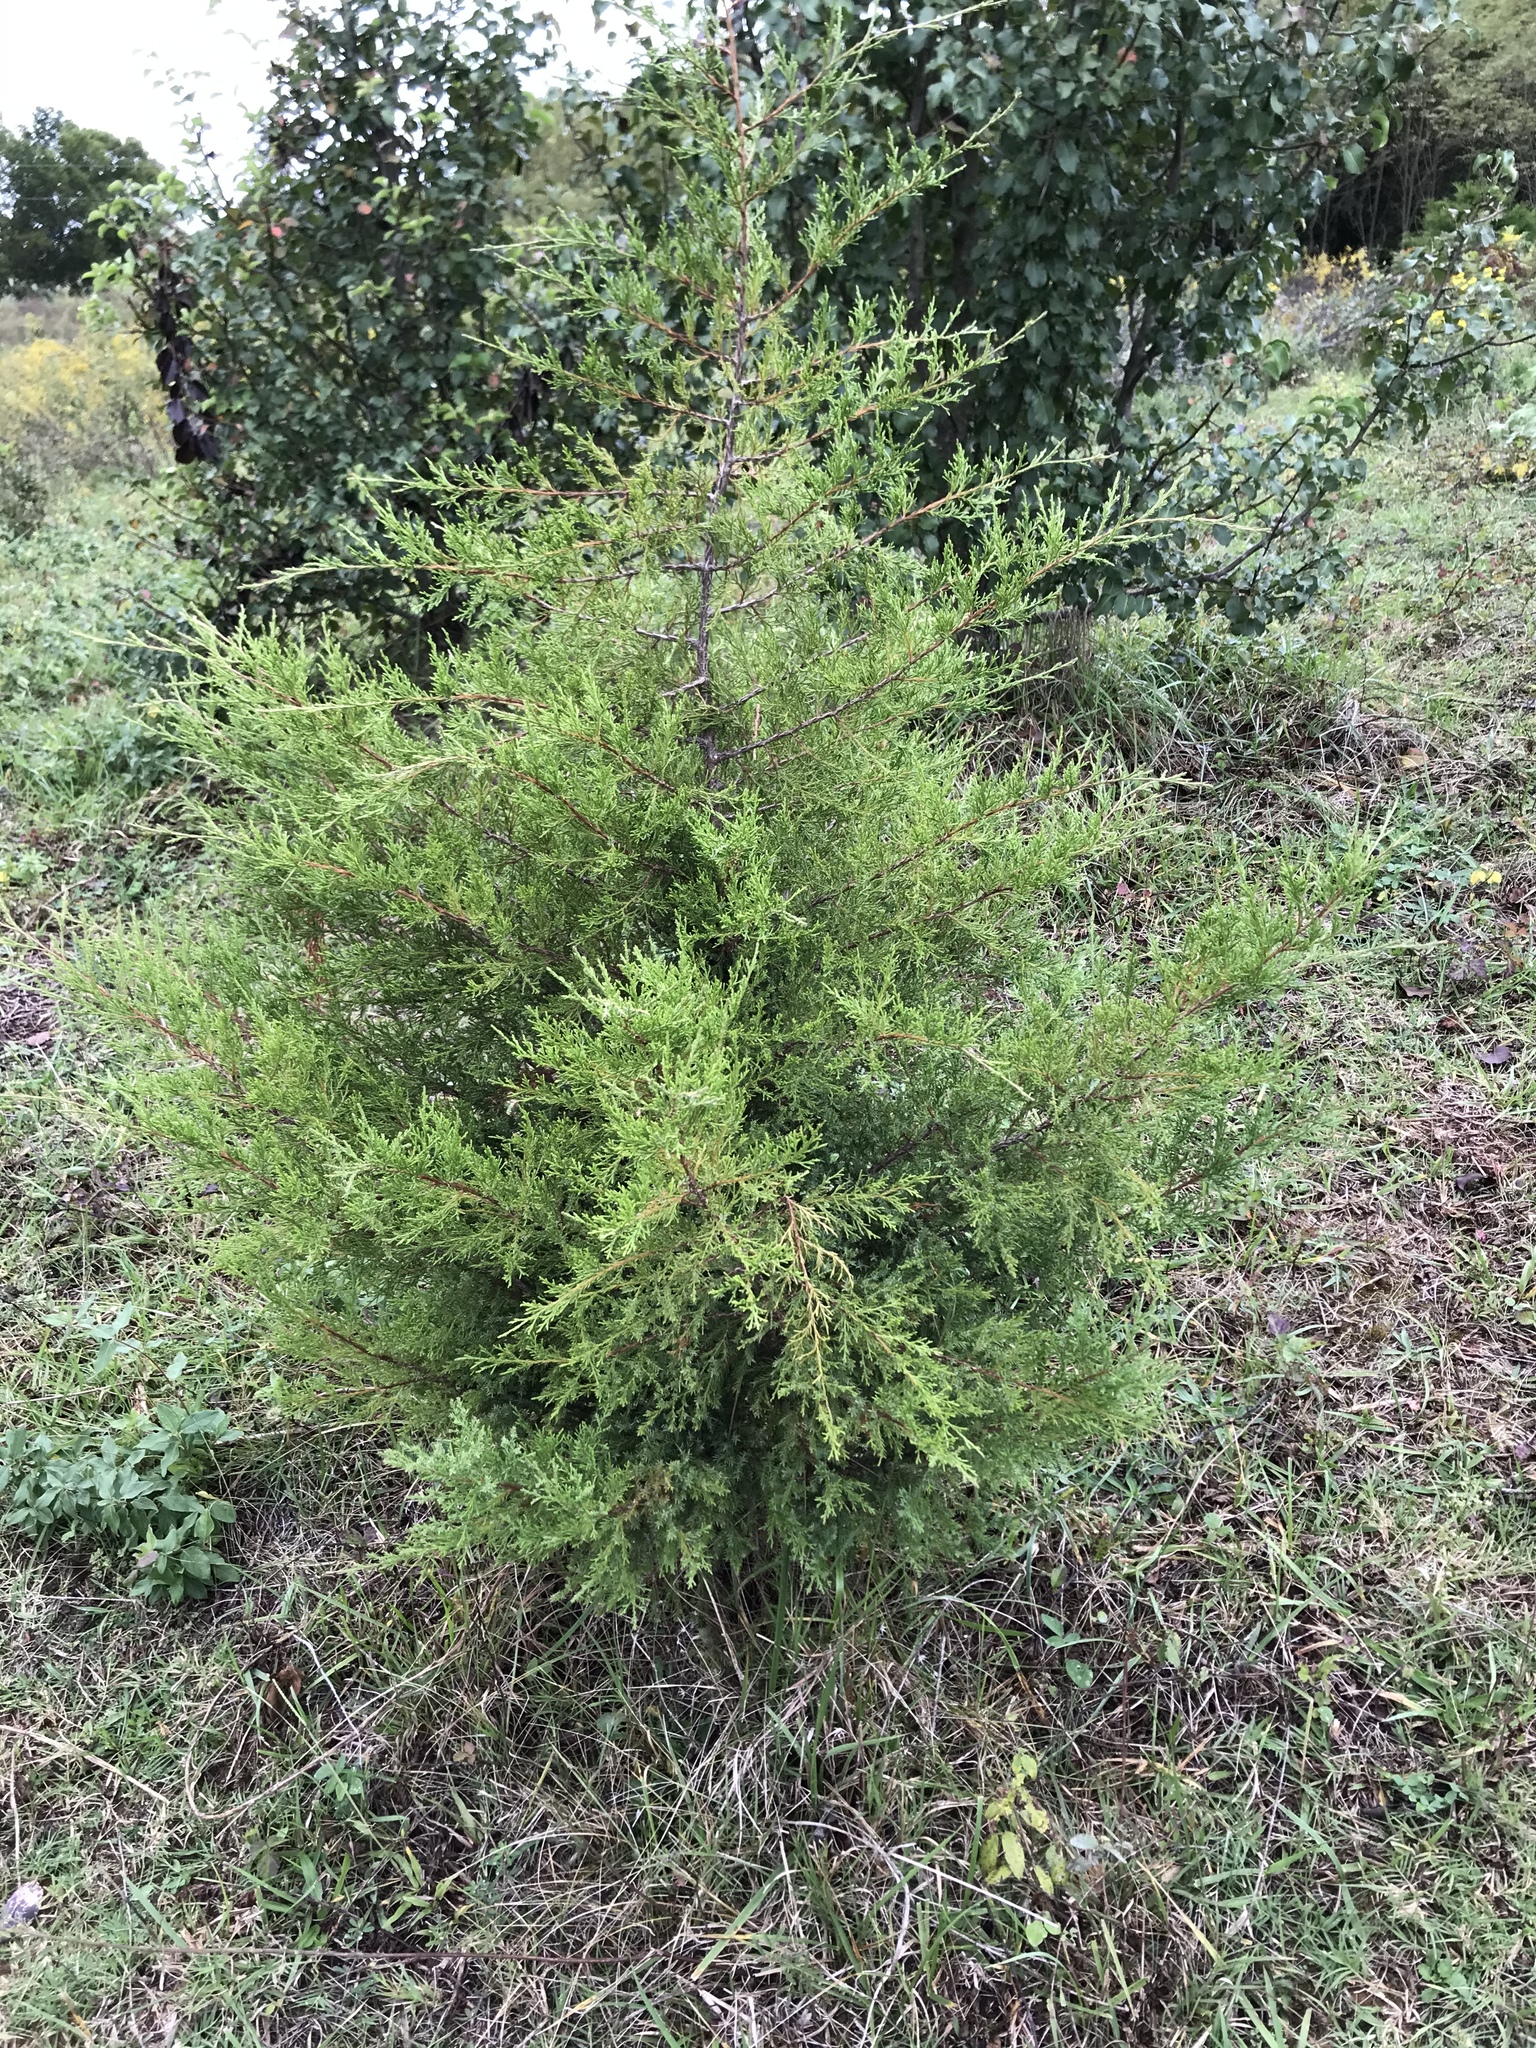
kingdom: Plantae
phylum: Tracheophyta
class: Pinopsida
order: Pinales
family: Cupressaceae
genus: Juniperus
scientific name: Juniperus virginiana
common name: Red juniper
